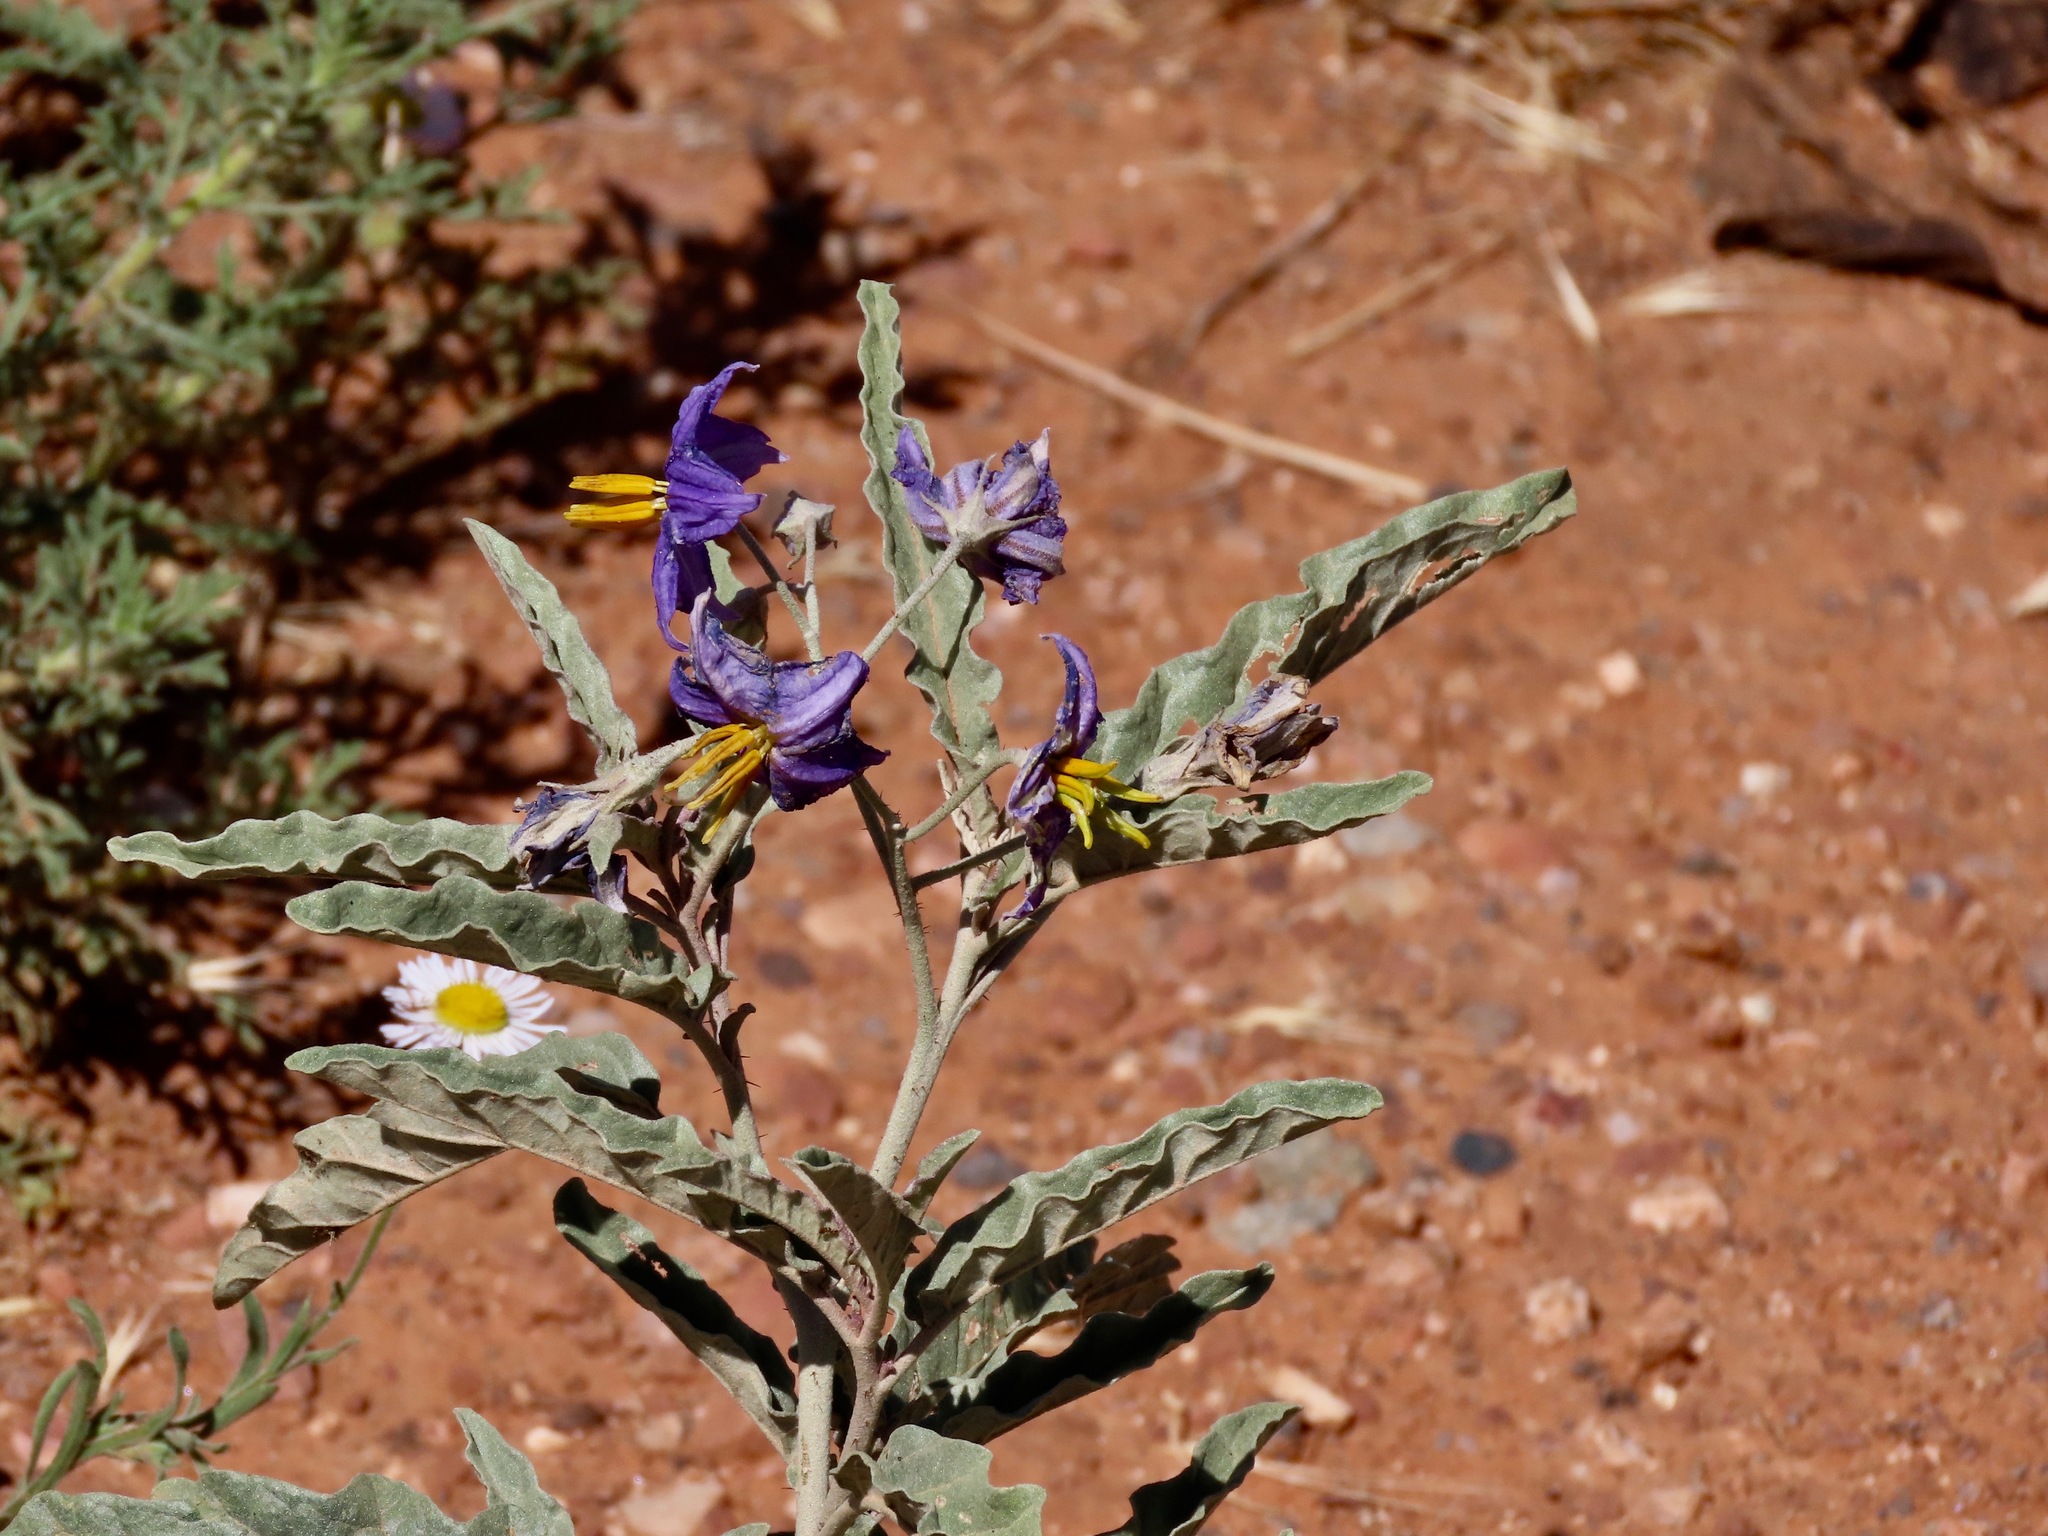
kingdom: Plantae
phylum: Tracheophyta
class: Magnoliopsida
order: Solanales
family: Solanaceae
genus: Solanum
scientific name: Solanum elaeagnifolium
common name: Silverleaf nightshade
